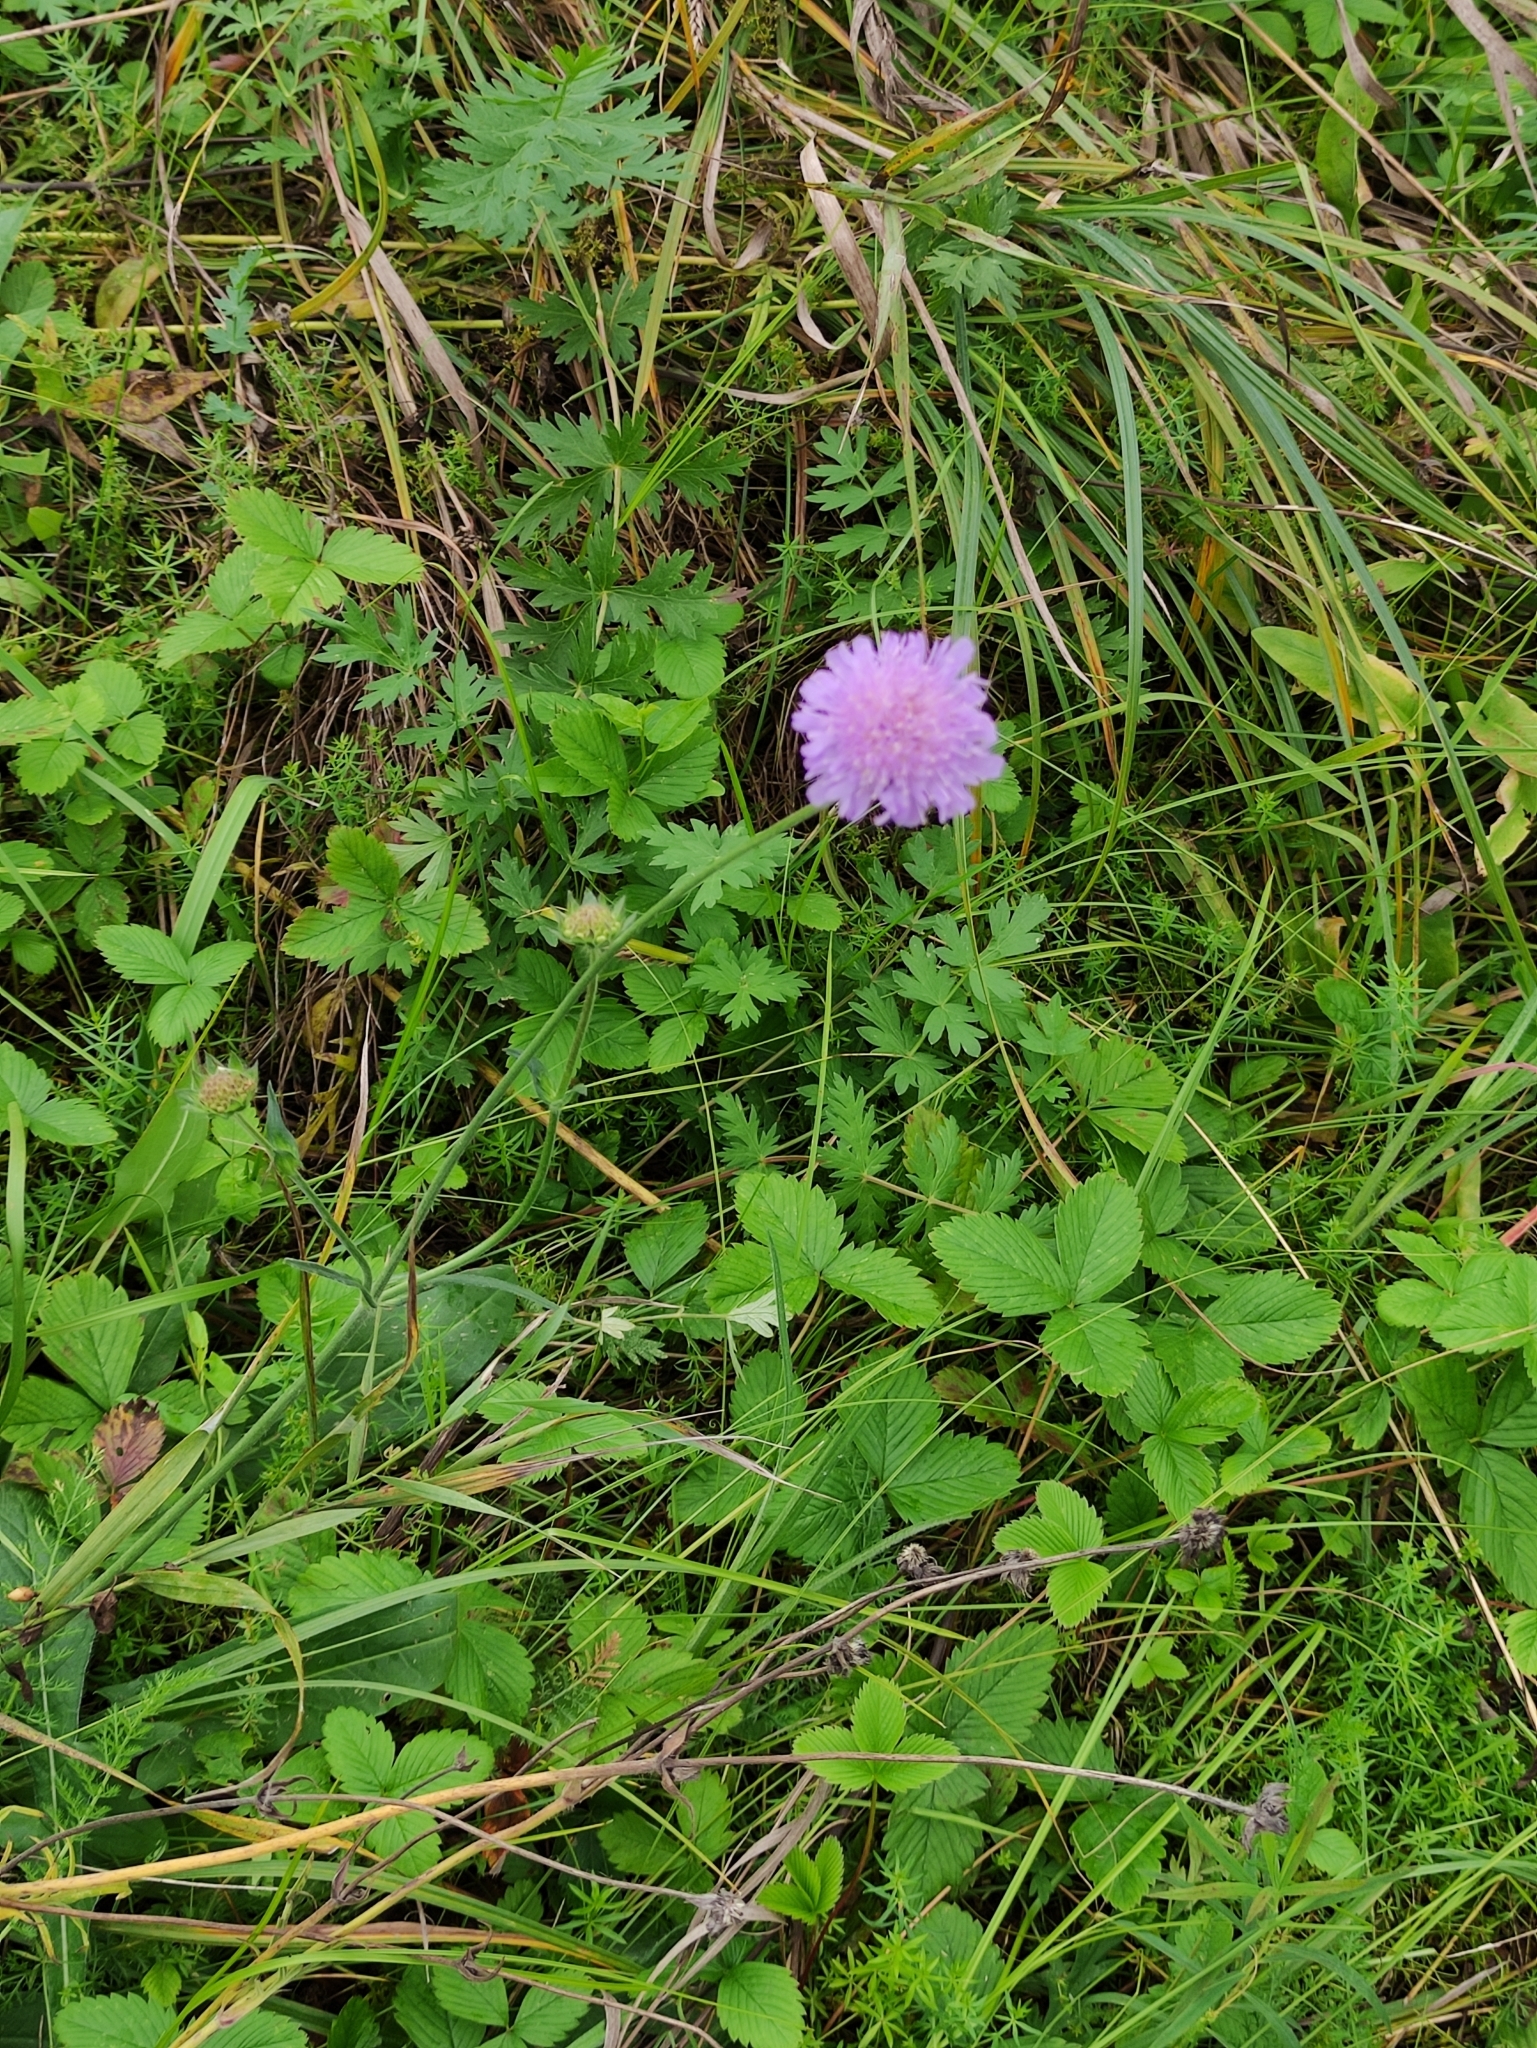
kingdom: Plantae
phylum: Tracheophyta
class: Magnoliopsida
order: Dipsacales
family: Caprifoliaceae
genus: Knautia
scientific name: Knautia arvensis
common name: Field scabiosa
